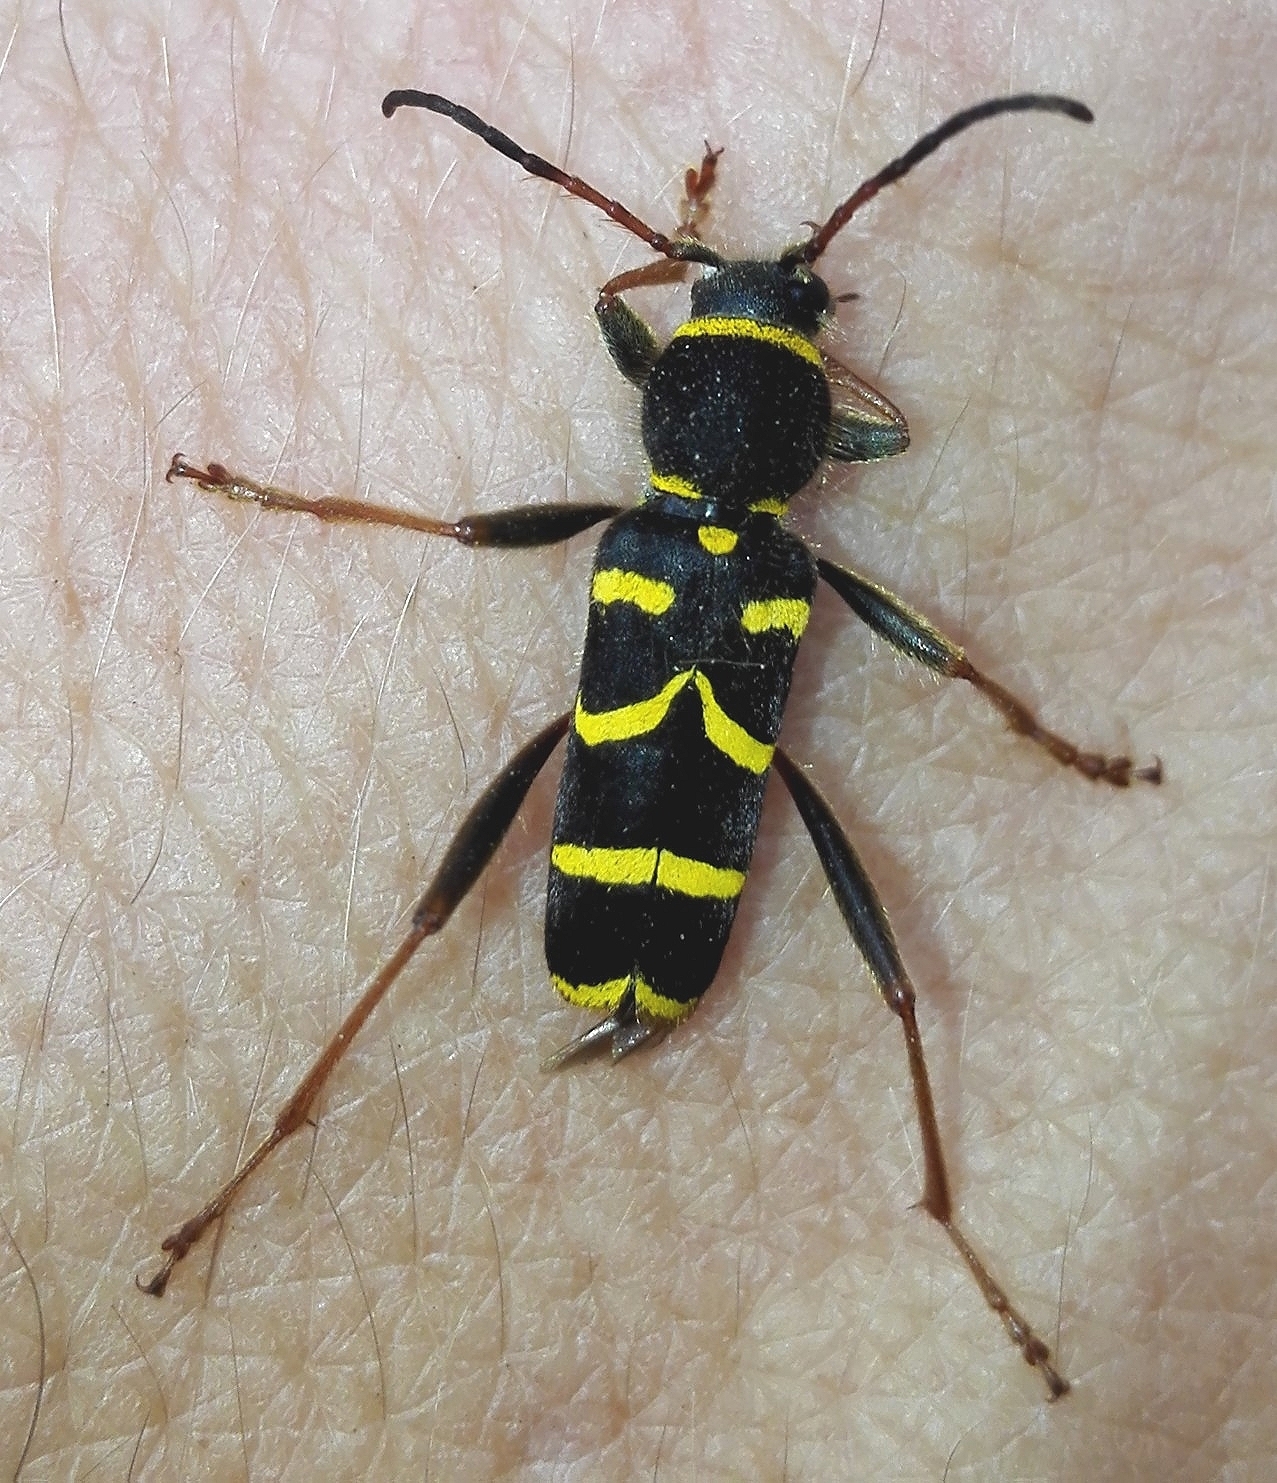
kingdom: Animalia
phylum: Arthropoda
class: Insecta
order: Coleoptera
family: Cerambycidae
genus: Clytus
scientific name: Clytus arietis
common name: Wasp beetle
